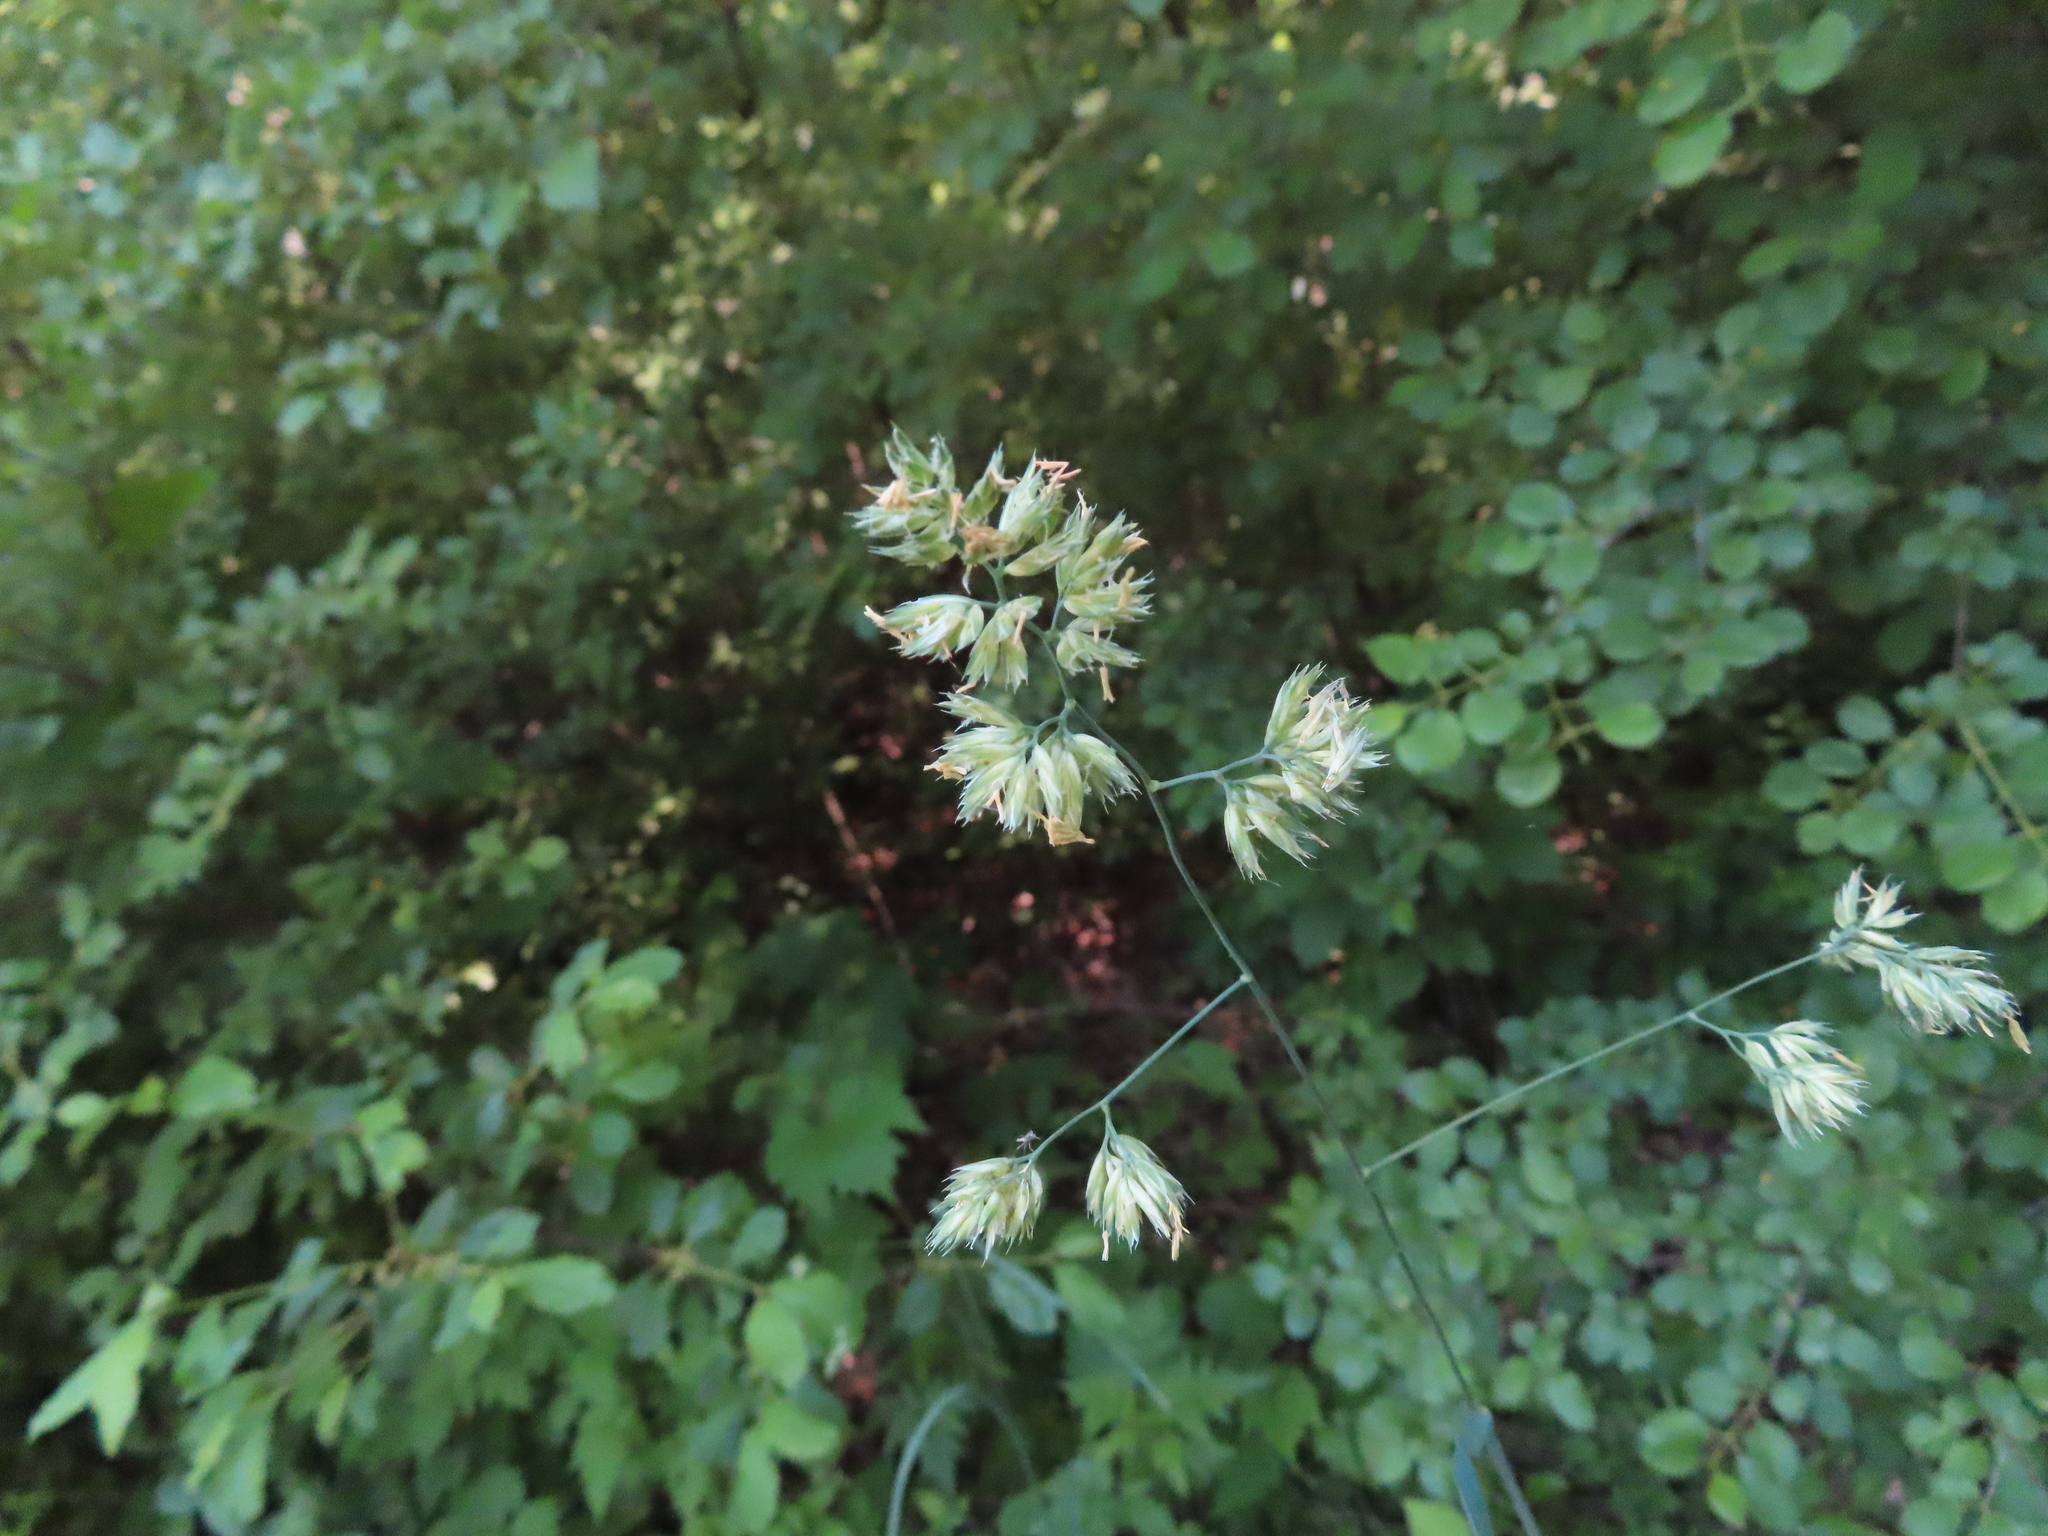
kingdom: Plantae
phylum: Tracheophyta
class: Liliopsida
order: Poales
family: Poaceae
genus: Dactylis
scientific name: Dactylis glomerata
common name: Orchardgrass
